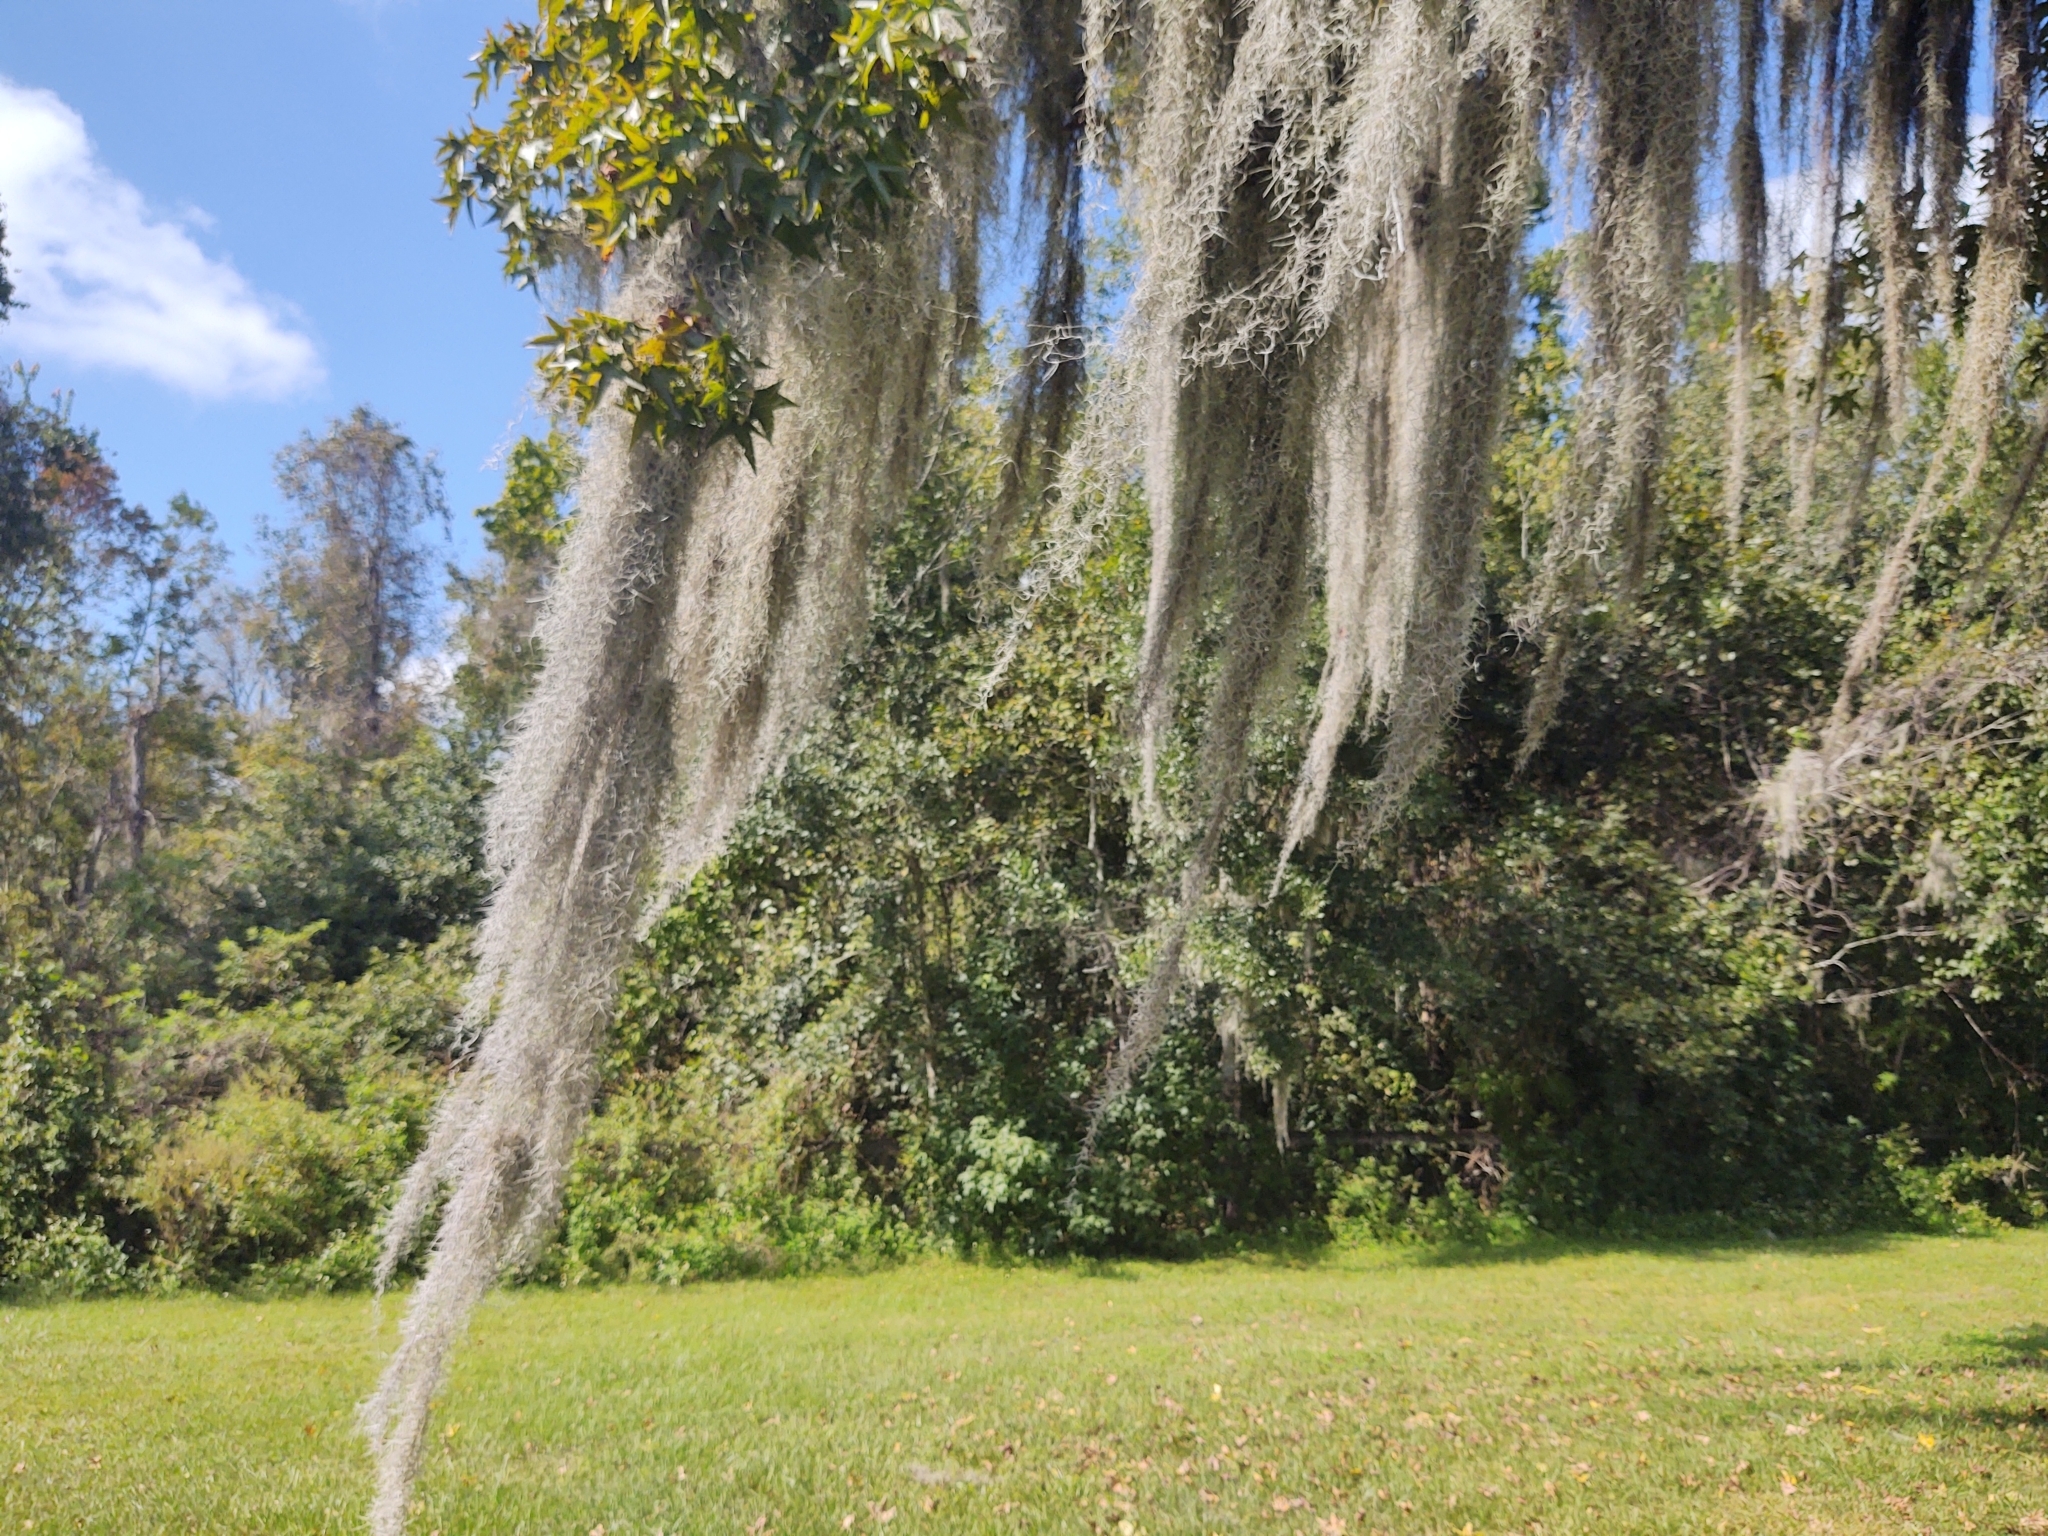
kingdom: Plantae
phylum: Tracheophyta
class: Liliopsida
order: Poales
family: Bromeliaceae
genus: Tillandsia
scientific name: Tillandsia usneoides
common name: Spanish moss
